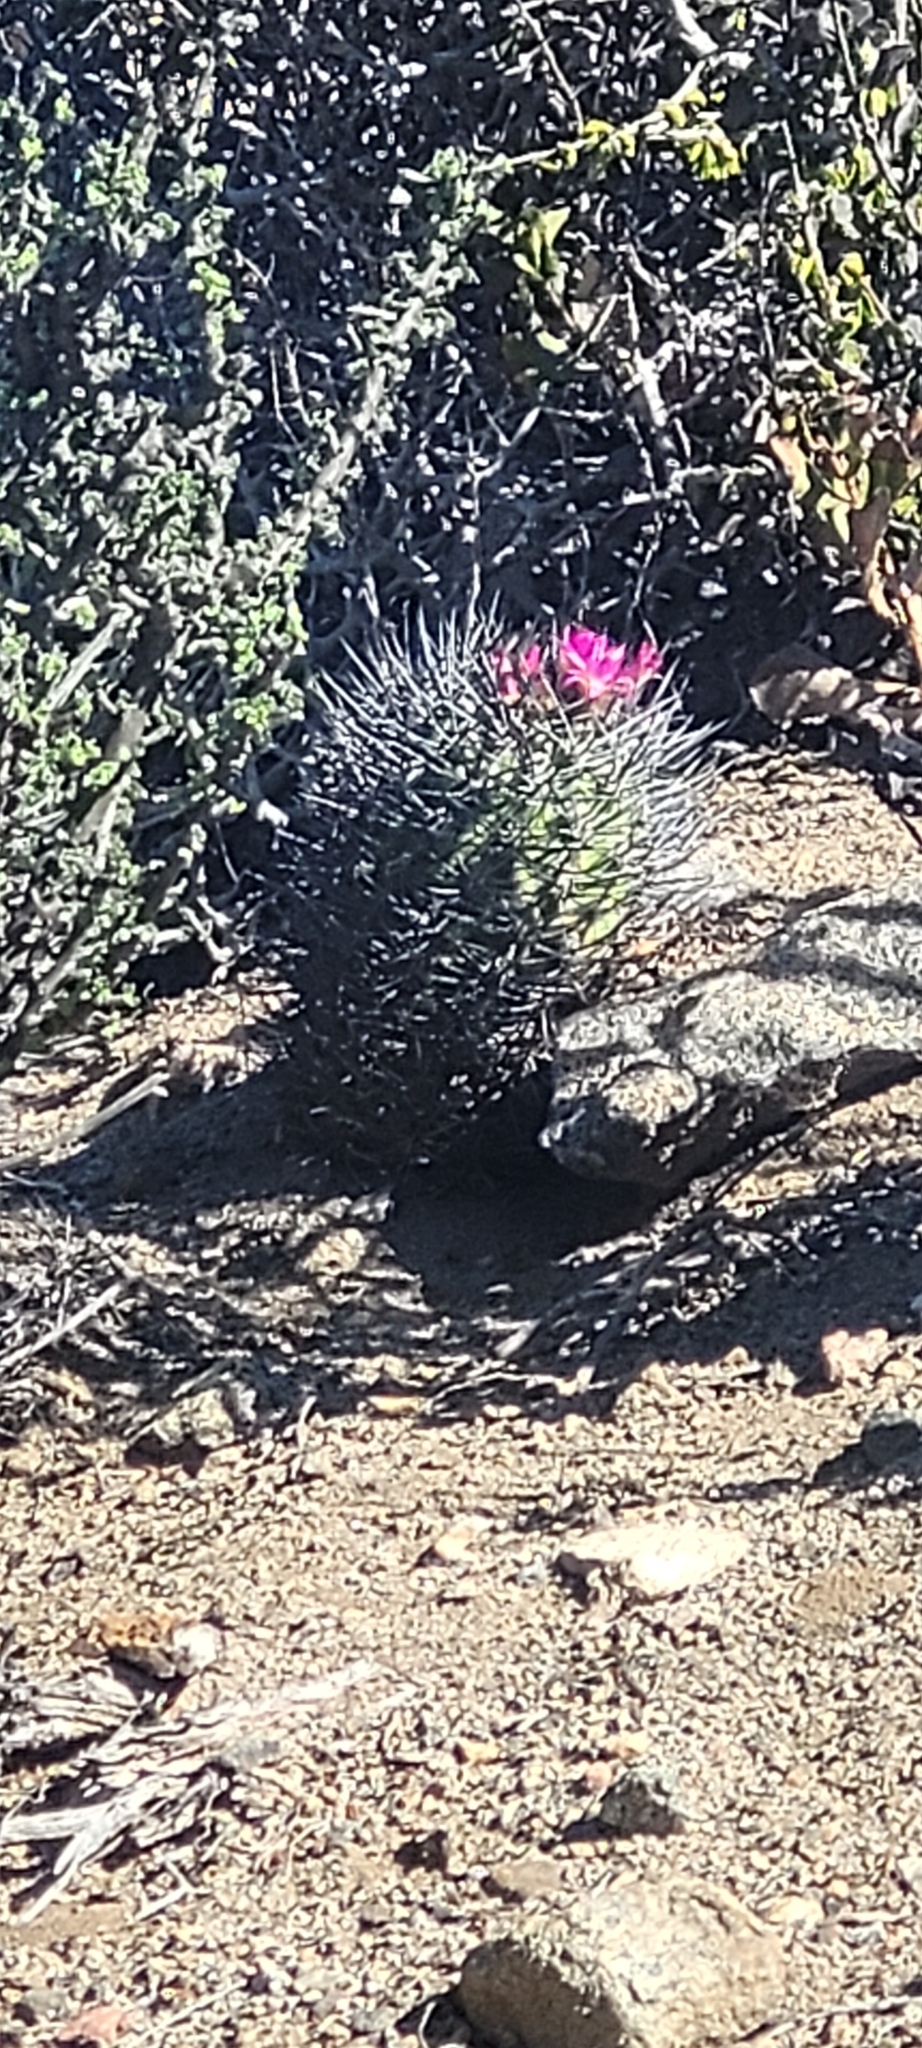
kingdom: Plantae
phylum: Tracheophyta
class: Magnoliopsida
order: Caryophyllales
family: Cactaceae
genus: Eriosyce
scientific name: Eriosyce subgibbosa
